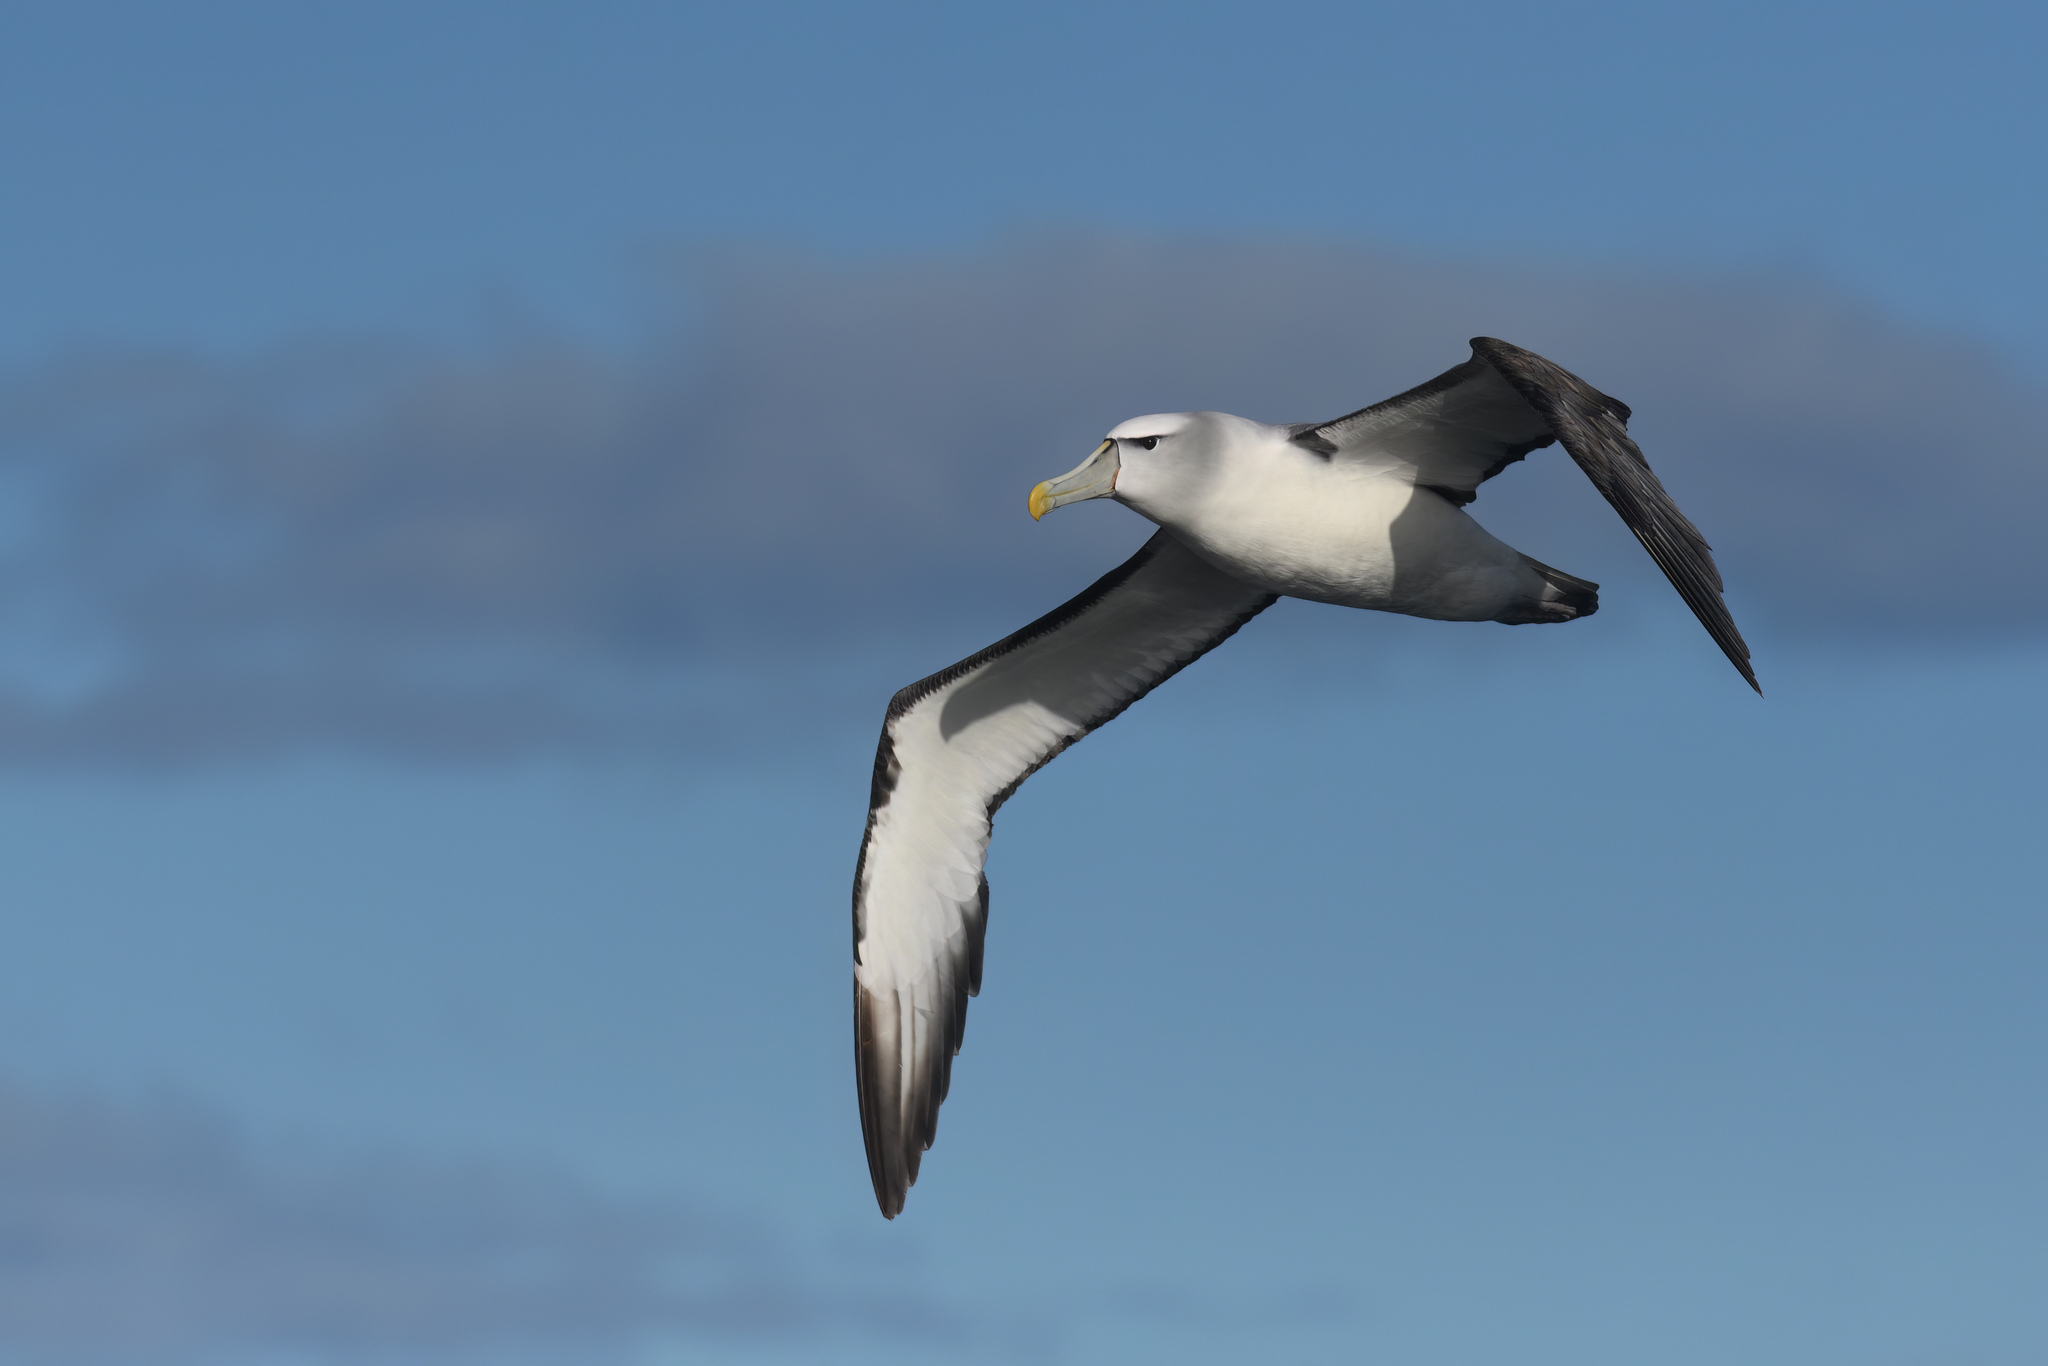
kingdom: Animalia
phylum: Chordata
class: Aves
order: Procellariiformes
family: Diomedeidae
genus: Thalassarche
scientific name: Thalassarche cauta
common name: Shy albatross
